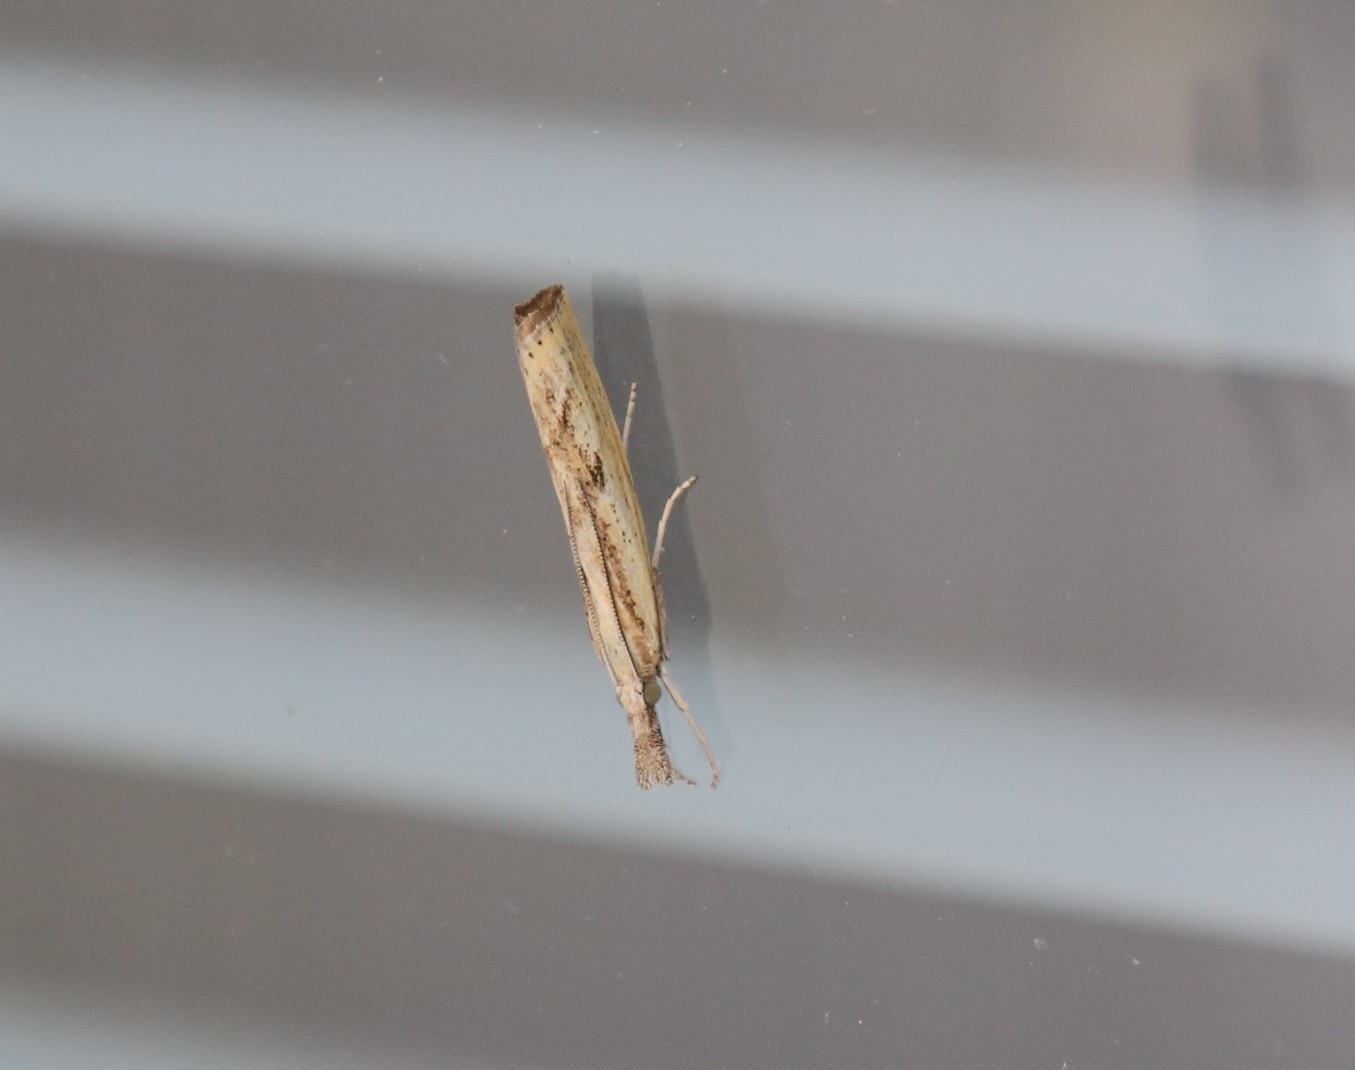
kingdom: Animalia
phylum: Arthropoda
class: Insecta
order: Lepidoptera
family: Crambidae
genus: Agriphila
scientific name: Agriphila inquinatella
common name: Barred grass-veneer
